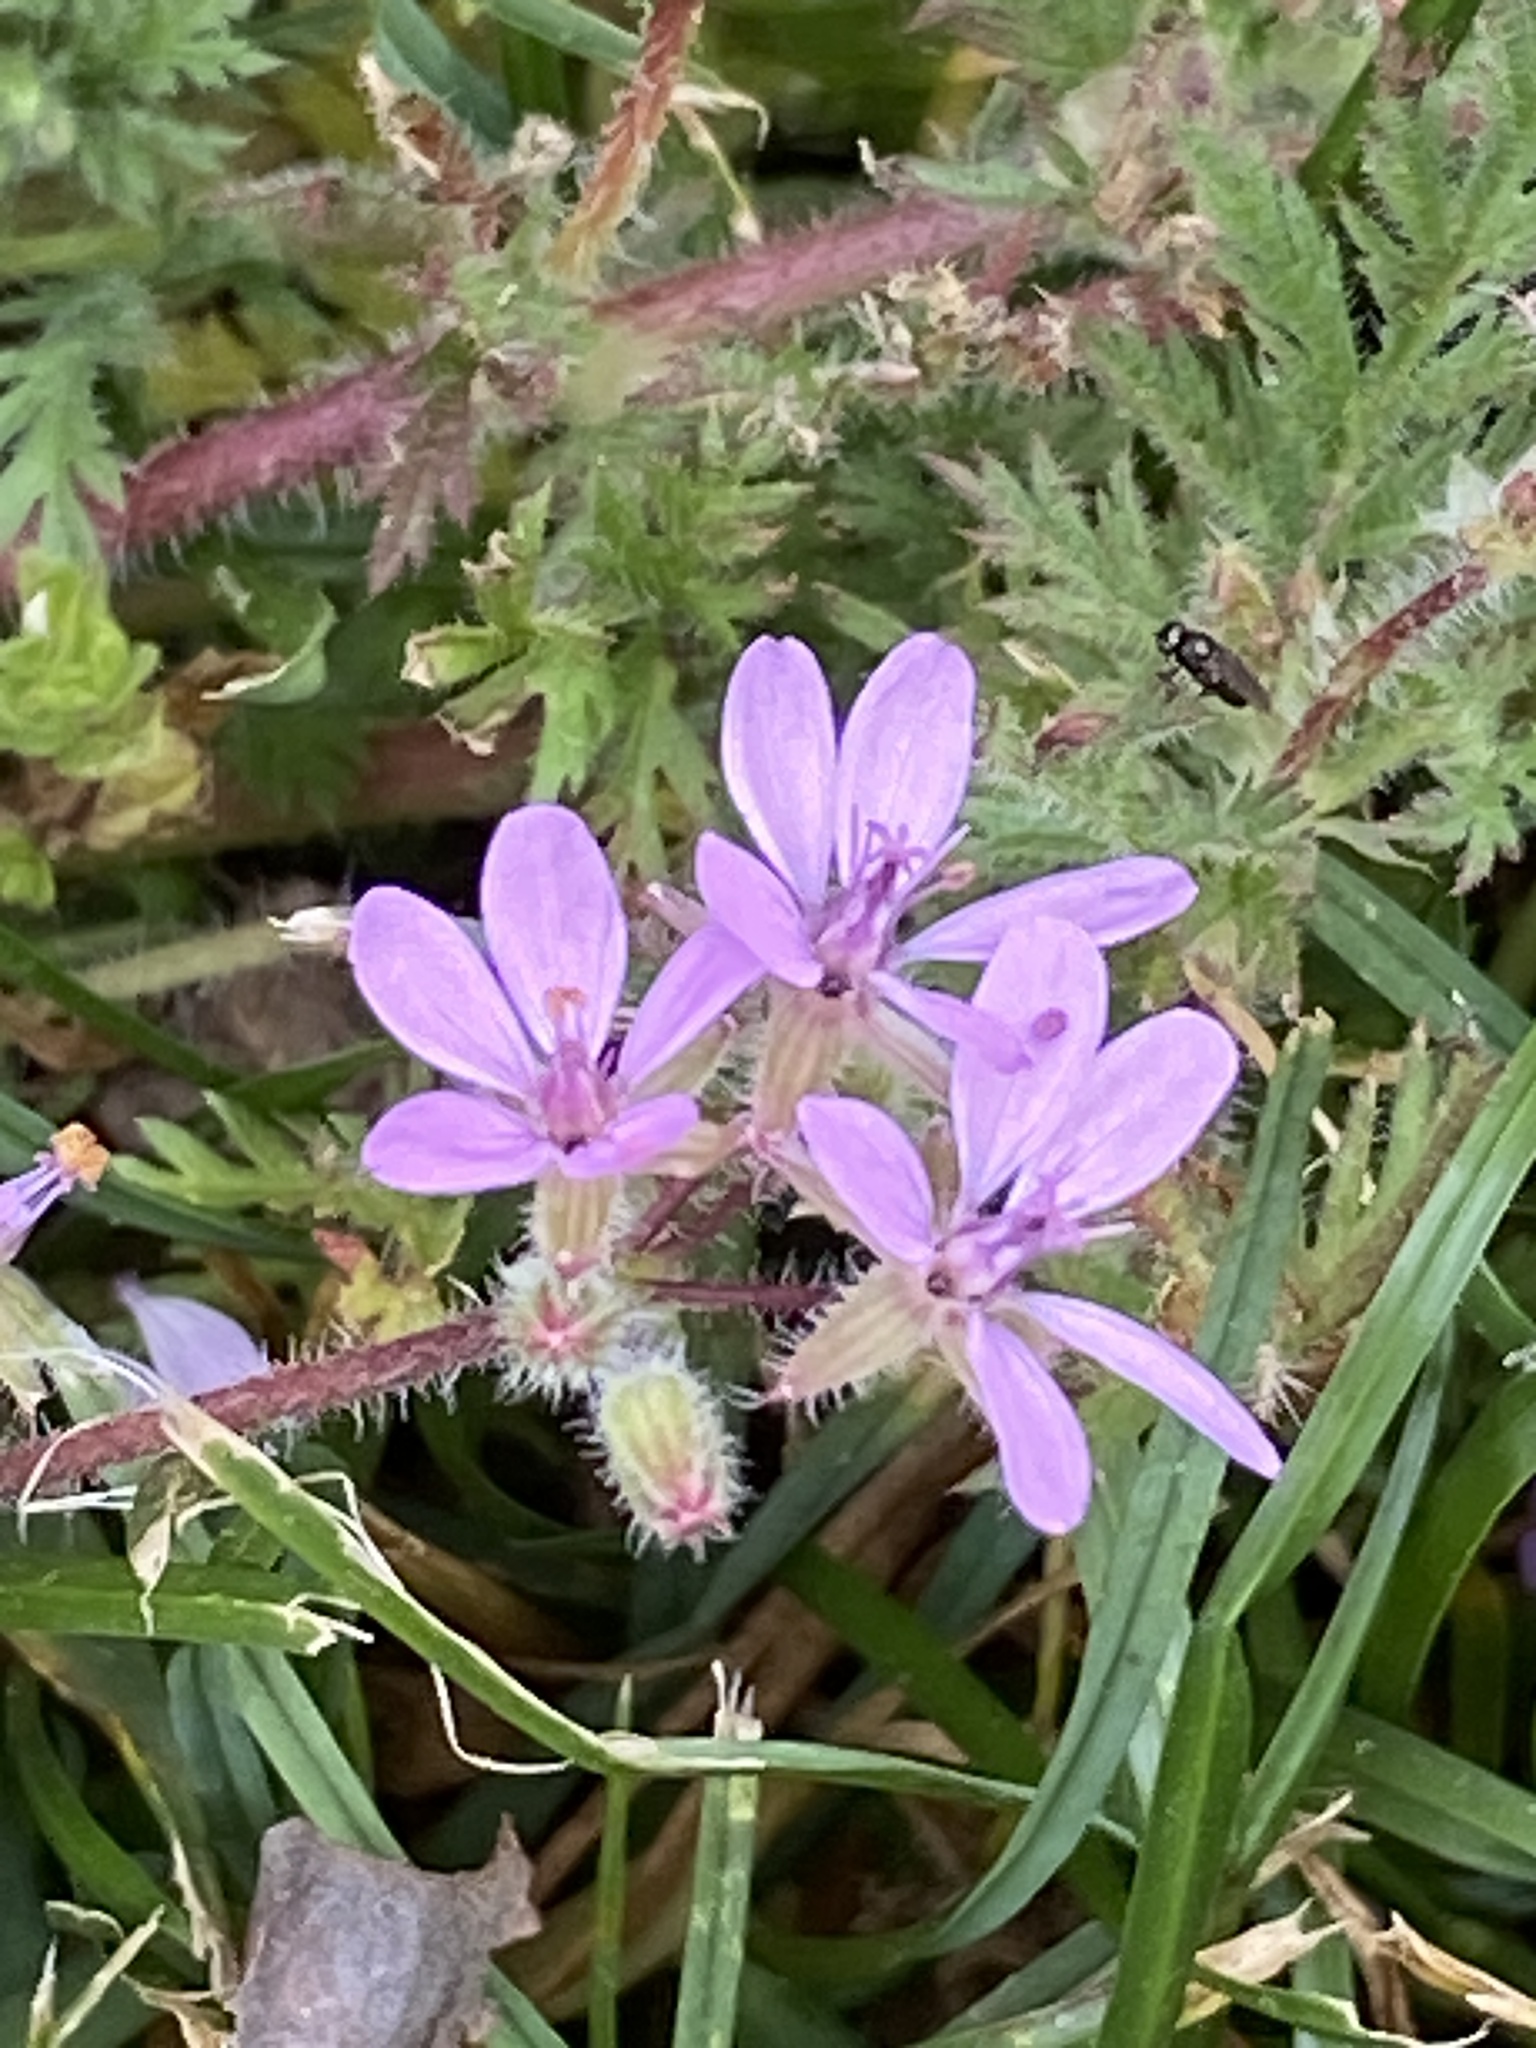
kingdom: Plantae
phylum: Tracheophyta
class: Magnoliopsida
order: Geraniales
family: Geraniaceae
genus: Erodium
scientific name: Erodium cicutarium
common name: Common stork's-bill
